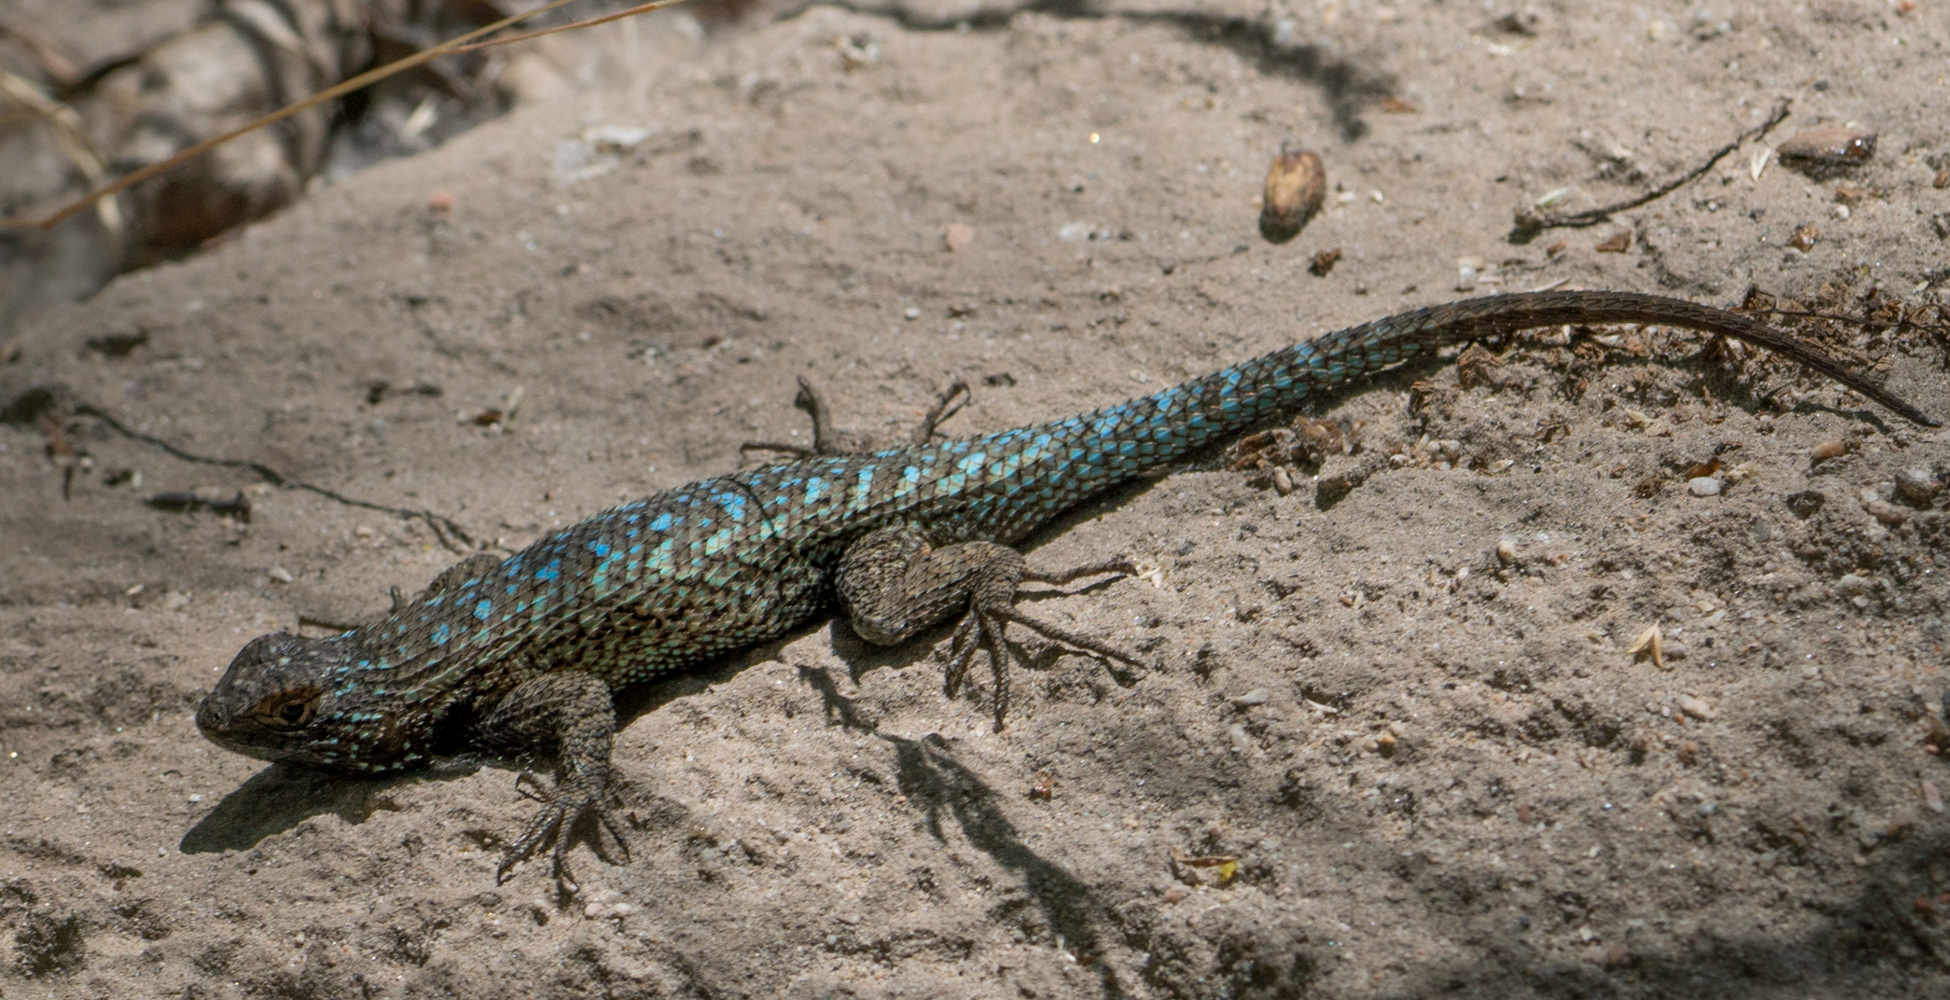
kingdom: Animalia
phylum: Chordata
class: Squamata
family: Phrynosomatidae
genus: Sceloporus
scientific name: Sceloporus occidentalis
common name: Western fence lizard
